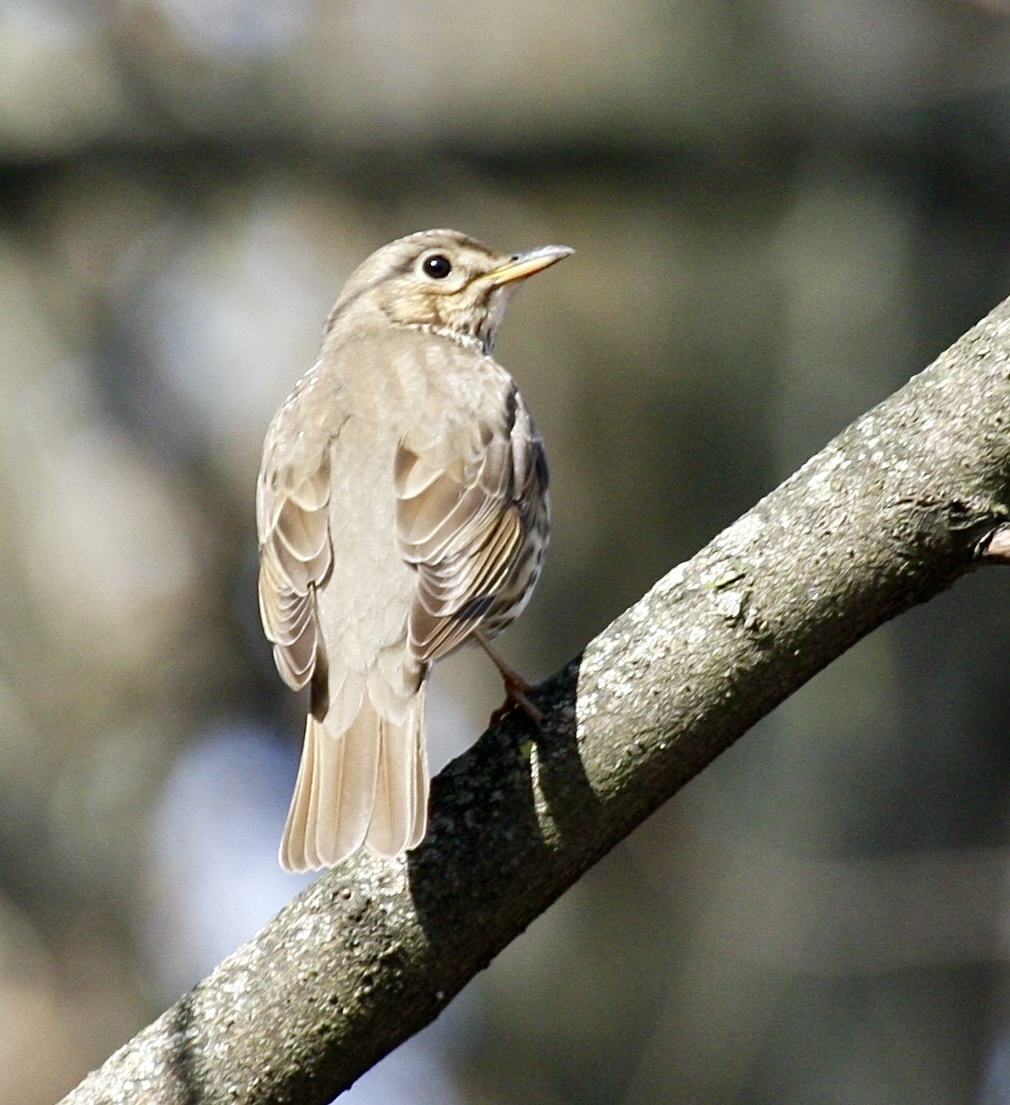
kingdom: Animalia
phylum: Chordata
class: Aves
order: Passeriformes
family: Turdidae
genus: Turdus
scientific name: Turdus philomelos
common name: Song thrush
